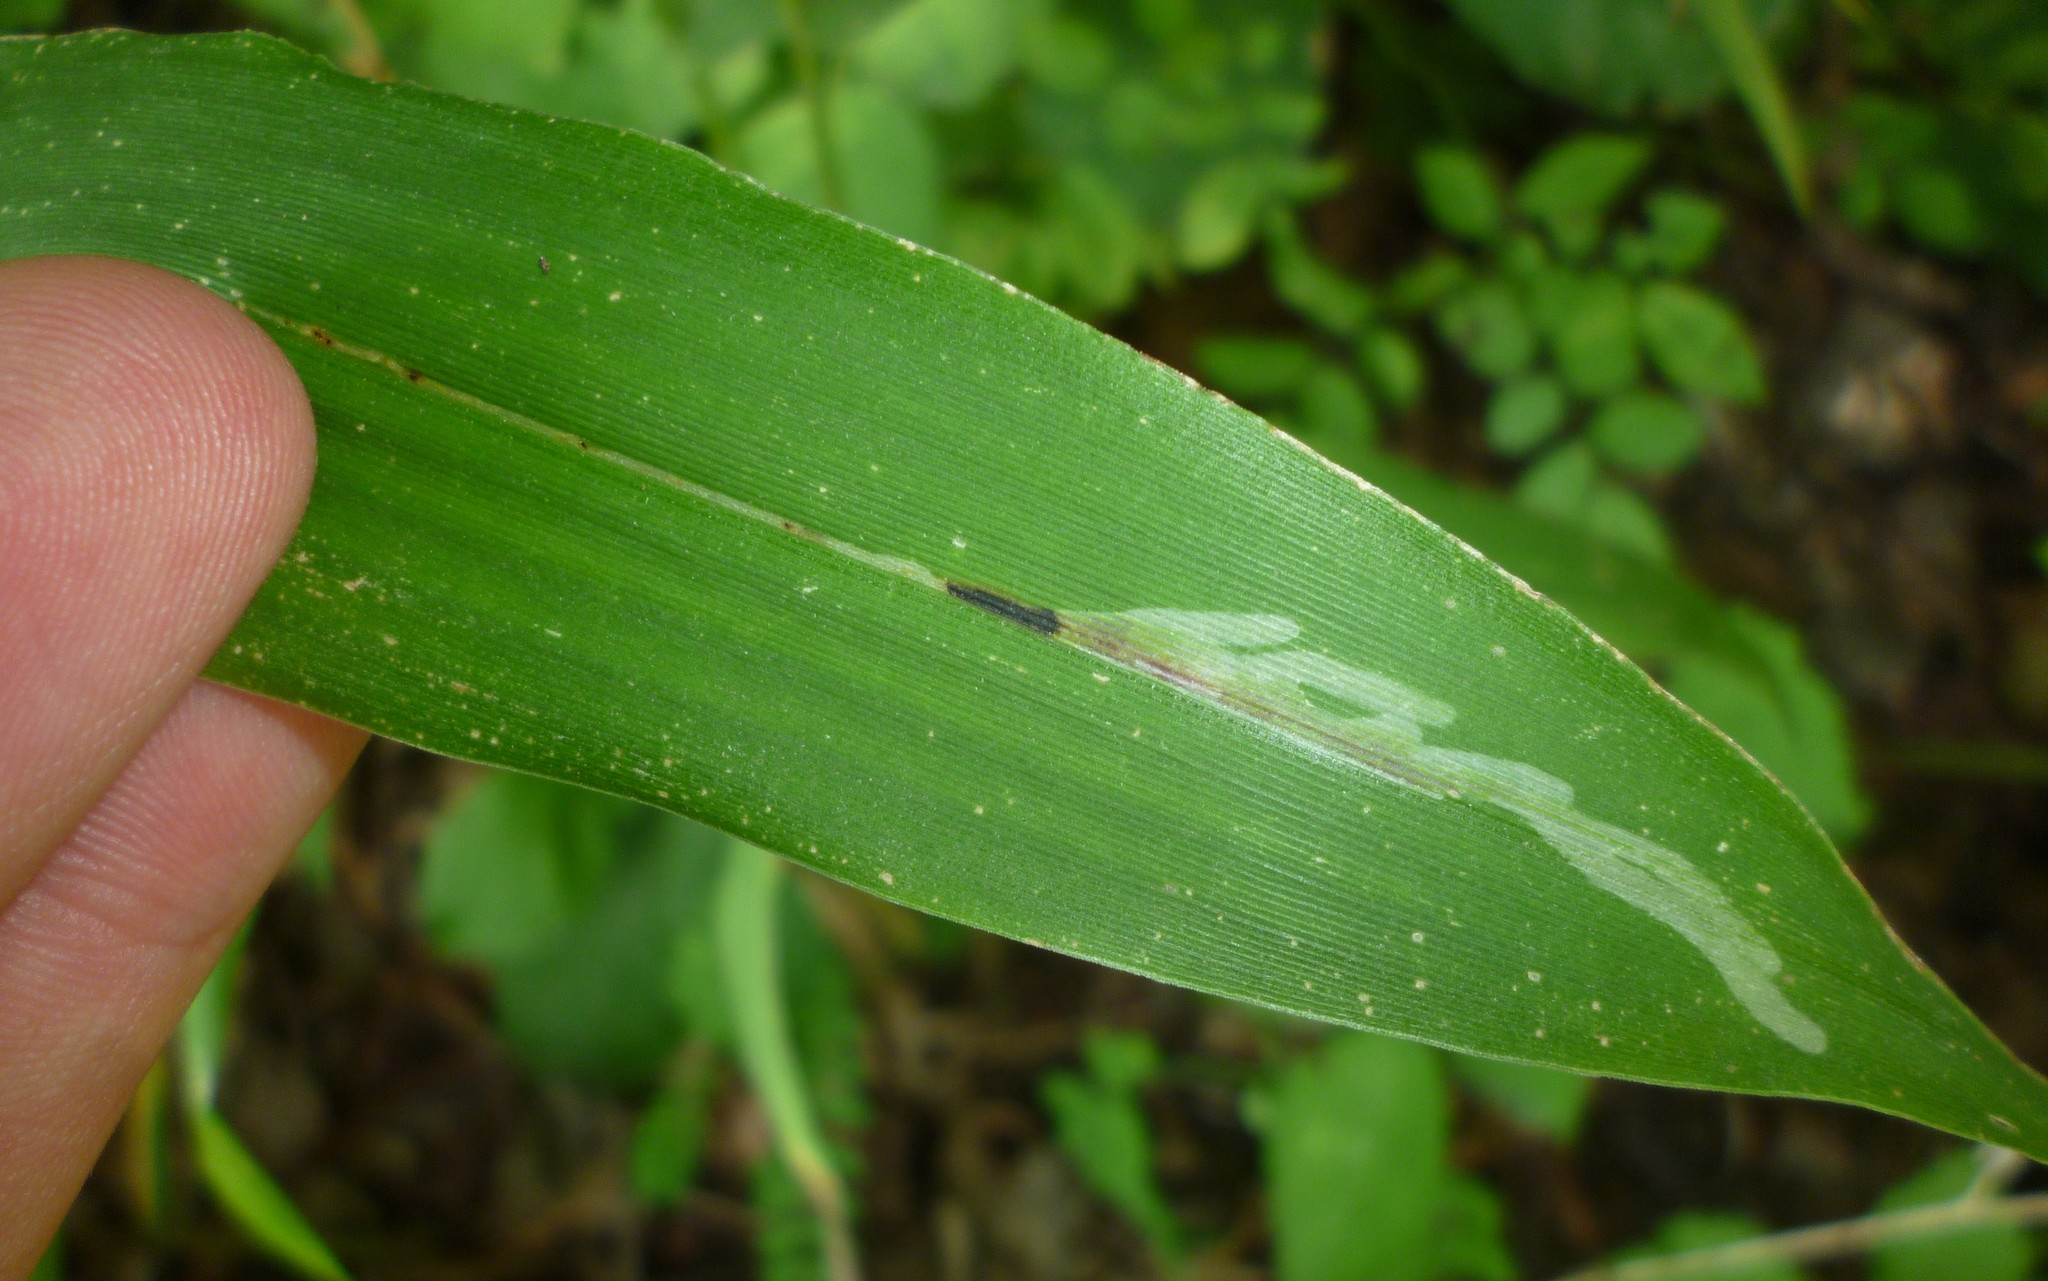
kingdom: Animalia
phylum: Arthropoda
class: Insecta
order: Diptera
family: Agromyzidae
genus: Cerodontha
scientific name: Cerodontha angulata
